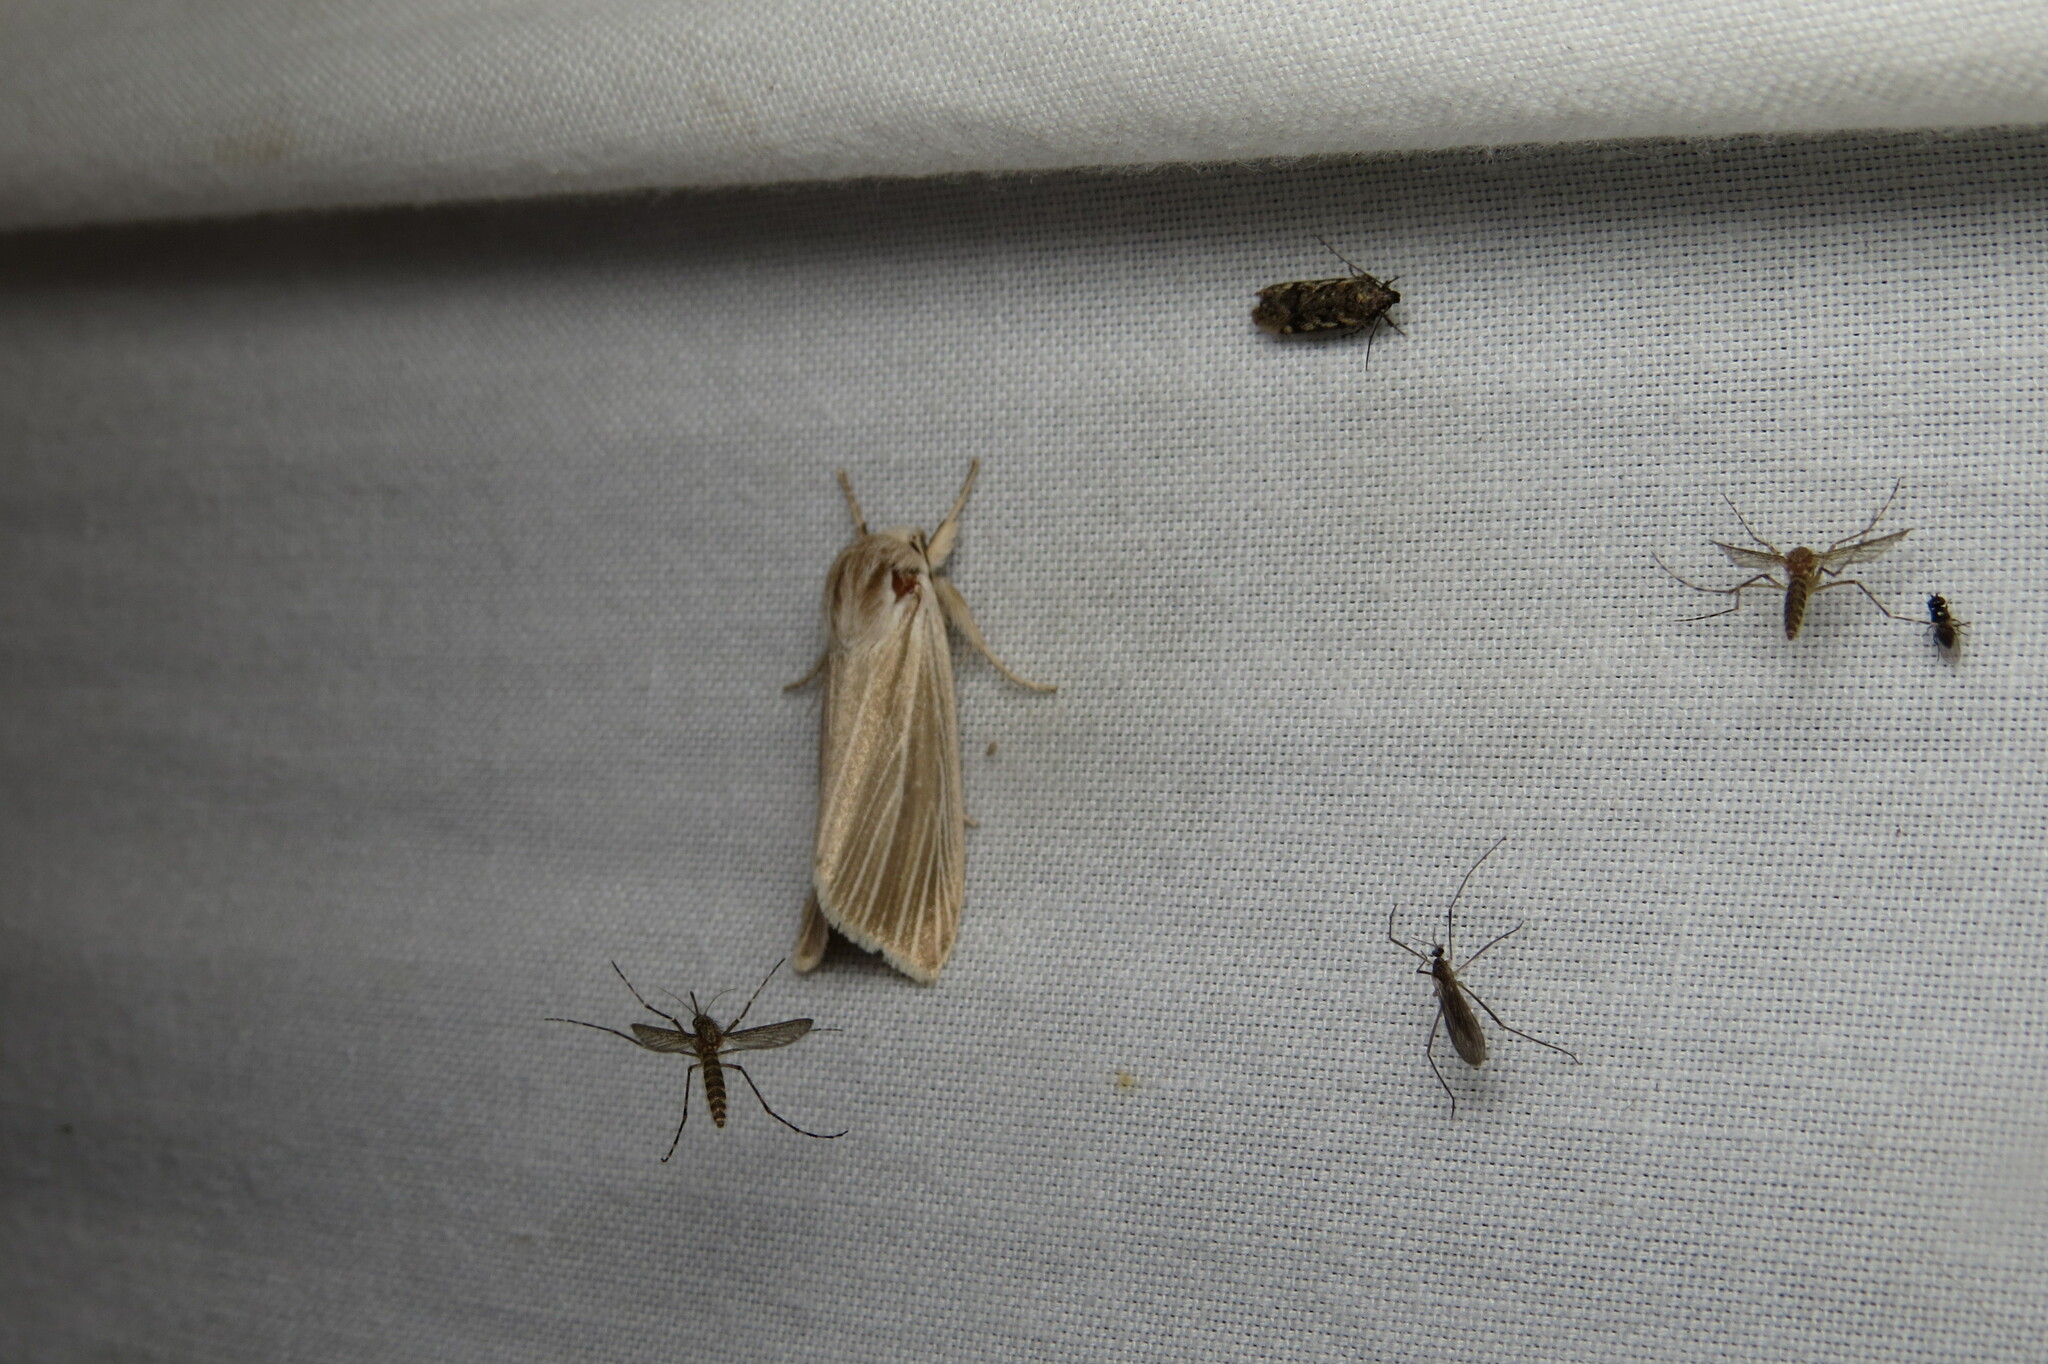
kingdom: Animalia
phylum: Arthropoda
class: Insecta
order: Lepidoptera
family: Noctuidae
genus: Acronicta
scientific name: Acronicta insularis
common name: Henry's marsh moth
